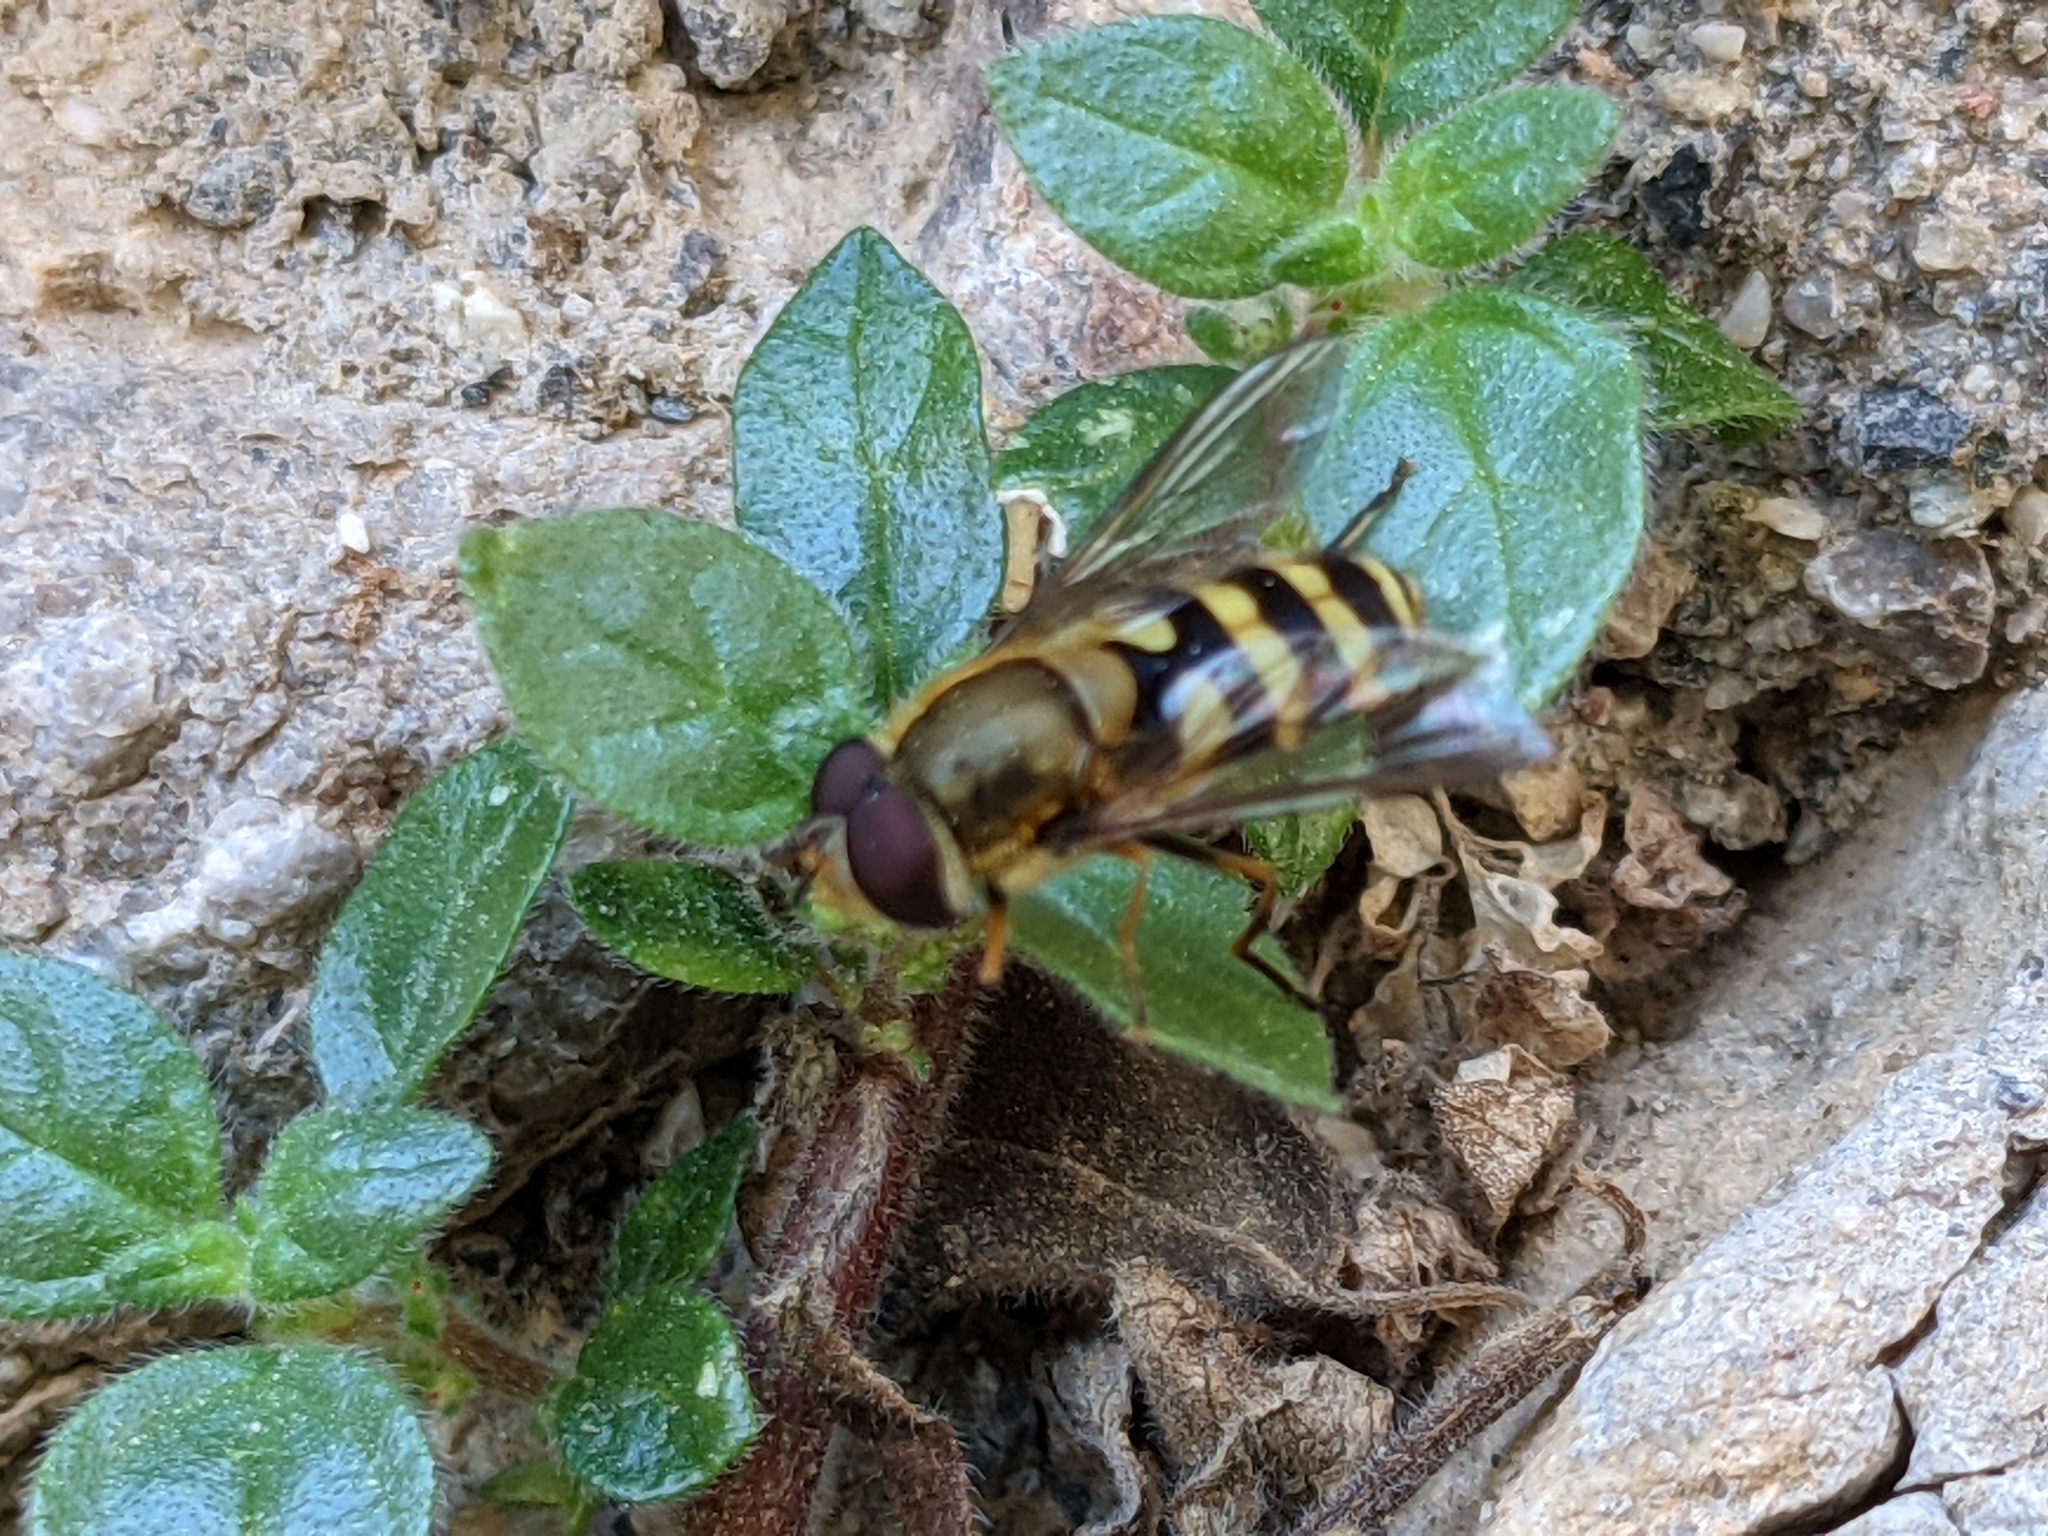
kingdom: Animalia
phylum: Arthropoda
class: Insecta
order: Diptera
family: Syrphidae
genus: Syrphus
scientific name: Syrphus
